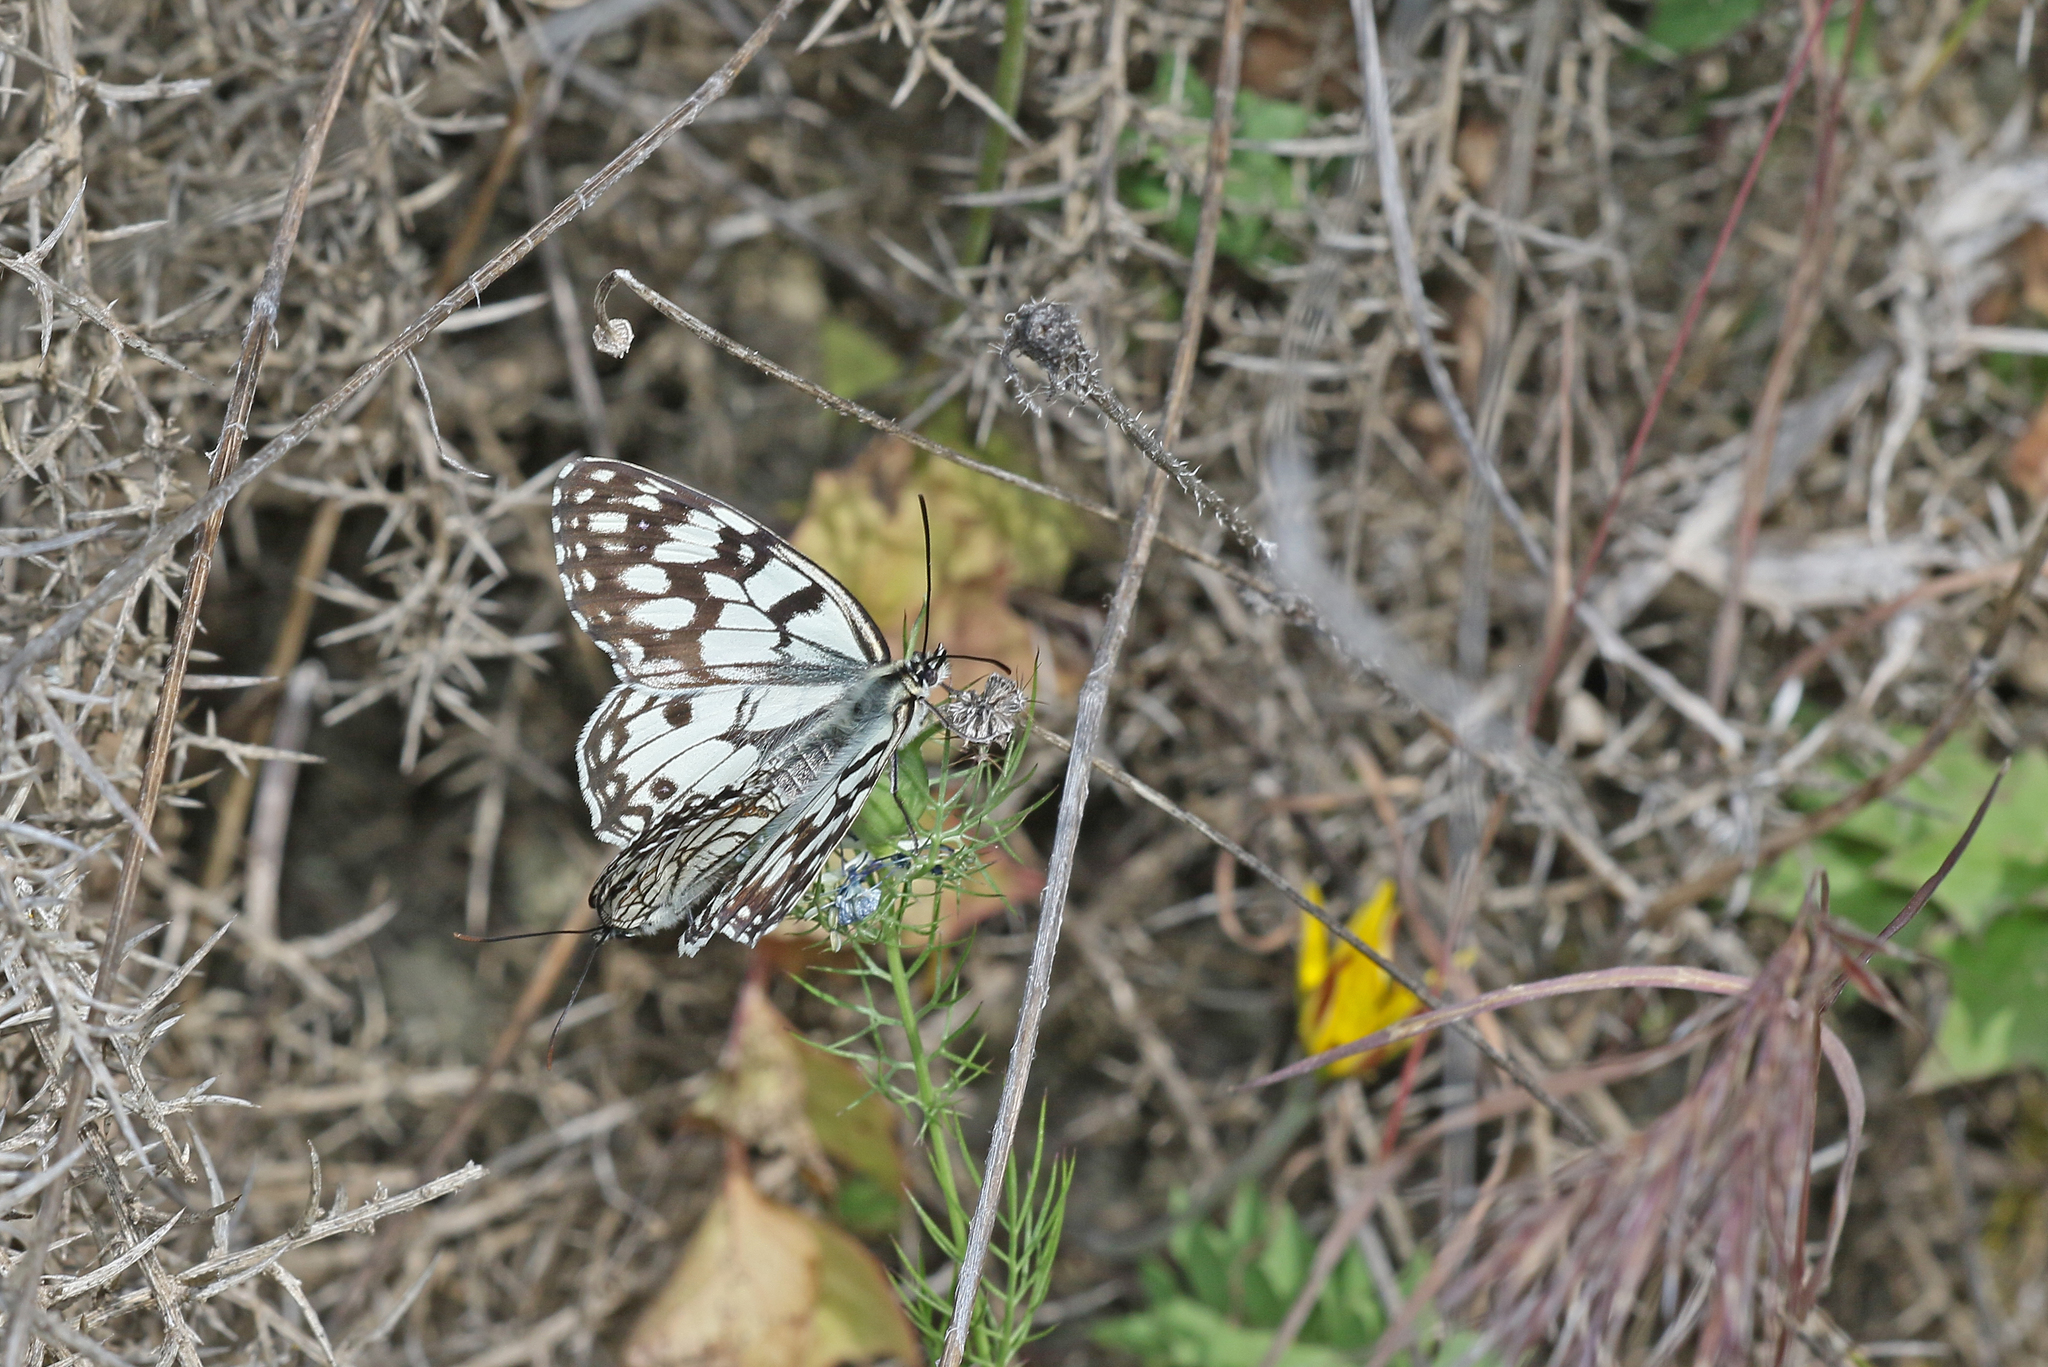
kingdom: Animalia
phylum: Arthropoda
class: Insecta
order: Lepidoptera
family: Nymphalidae
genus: Melanargia
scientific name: Melanargia ines
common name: Spanish marbled white
